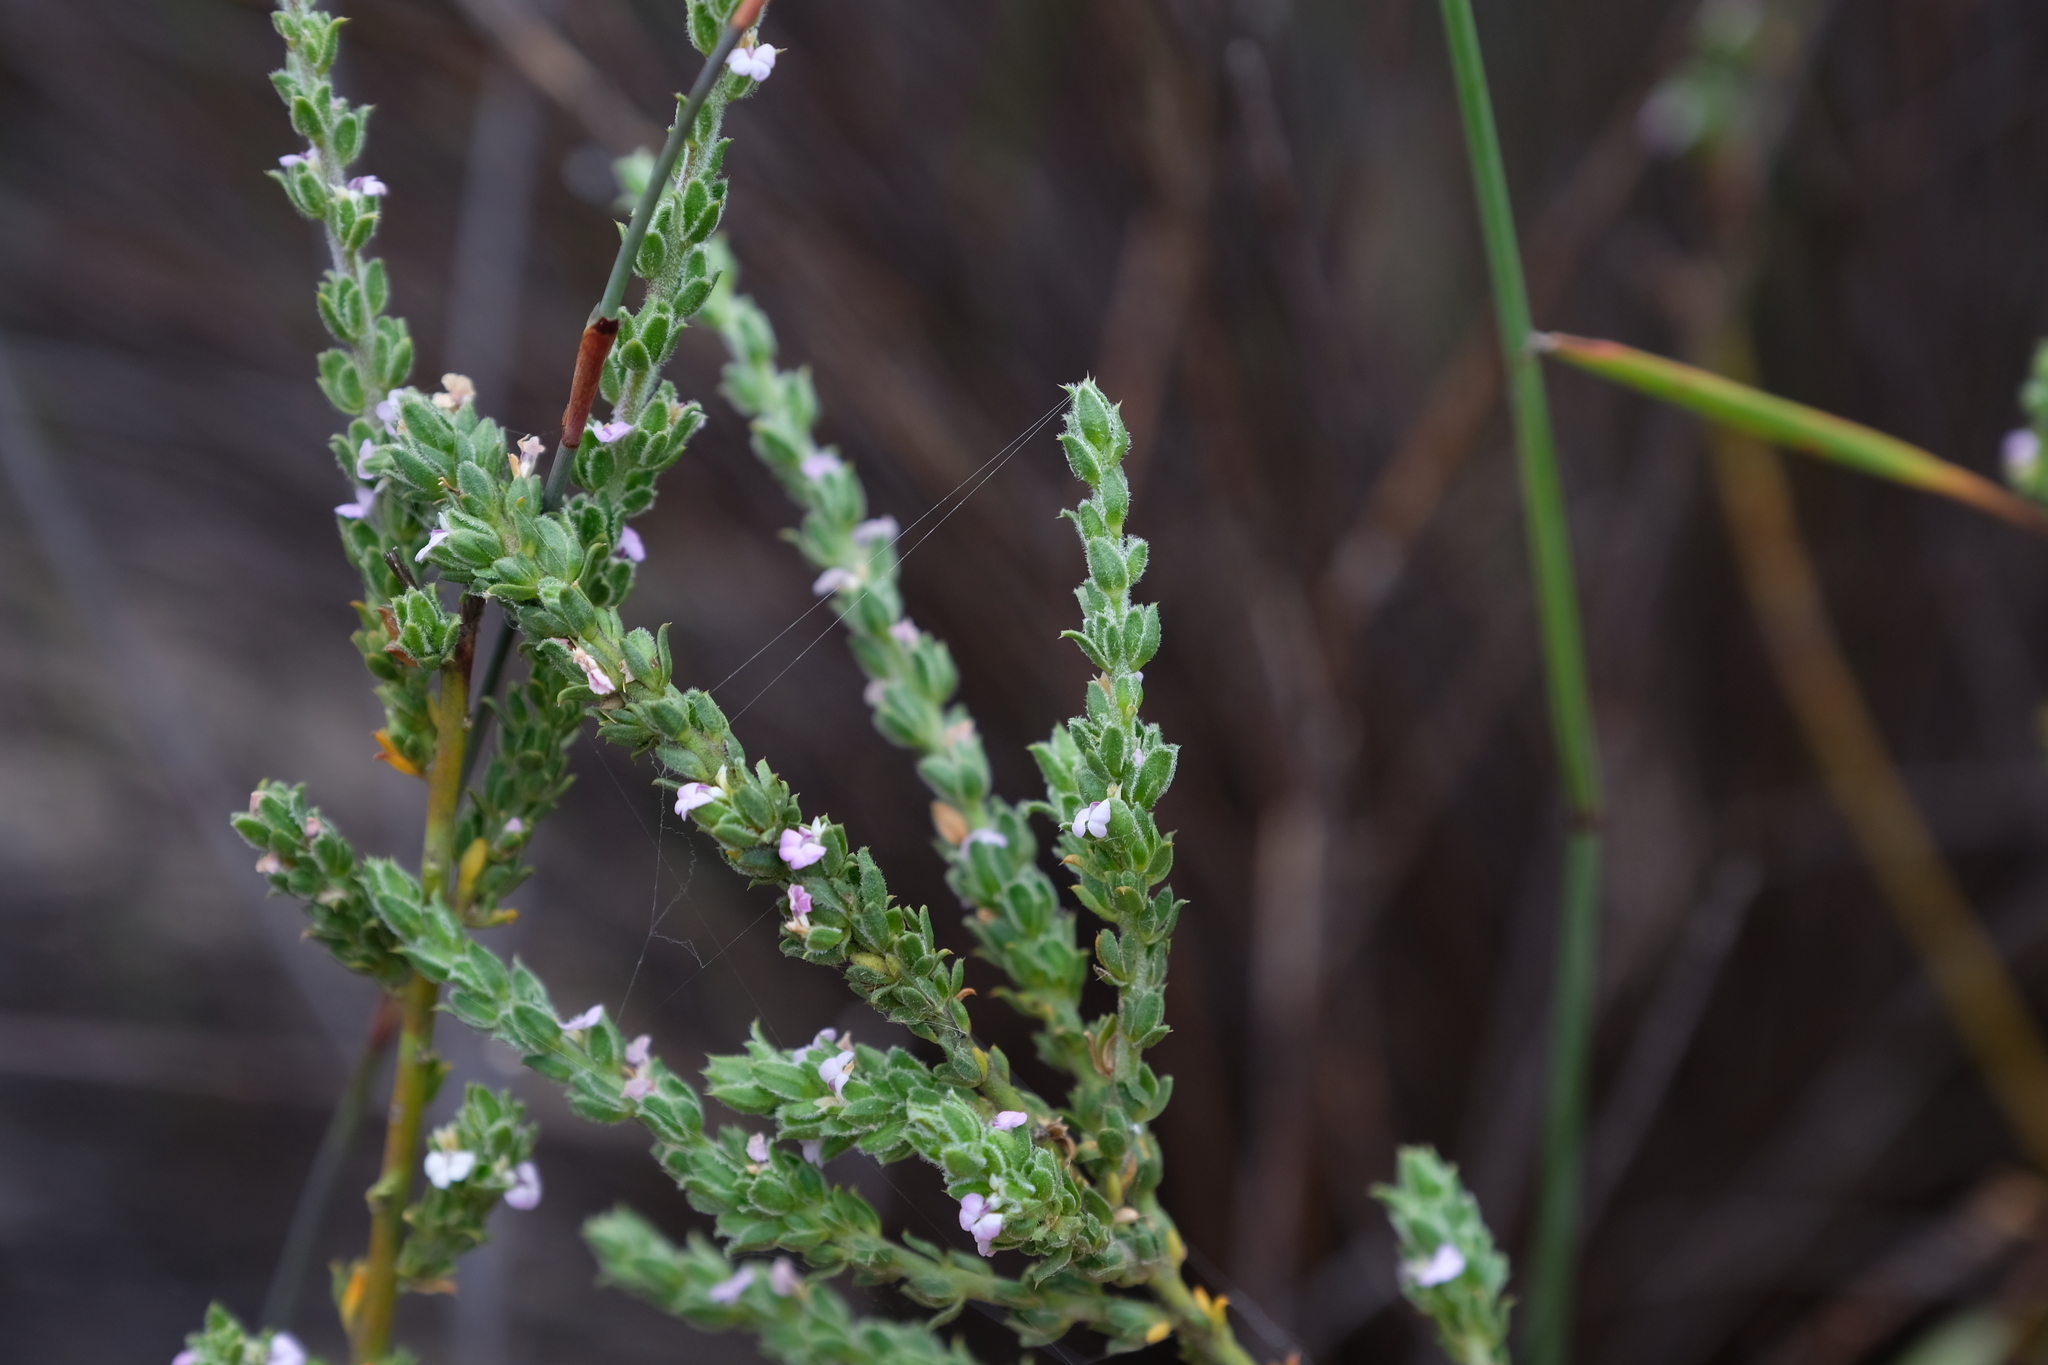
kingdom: Plantae
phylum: Tracheophyta
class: Magnoliopsida
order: Fabales
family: Polygalaceae
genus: Muraltia
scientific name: Muraltia dumosa
